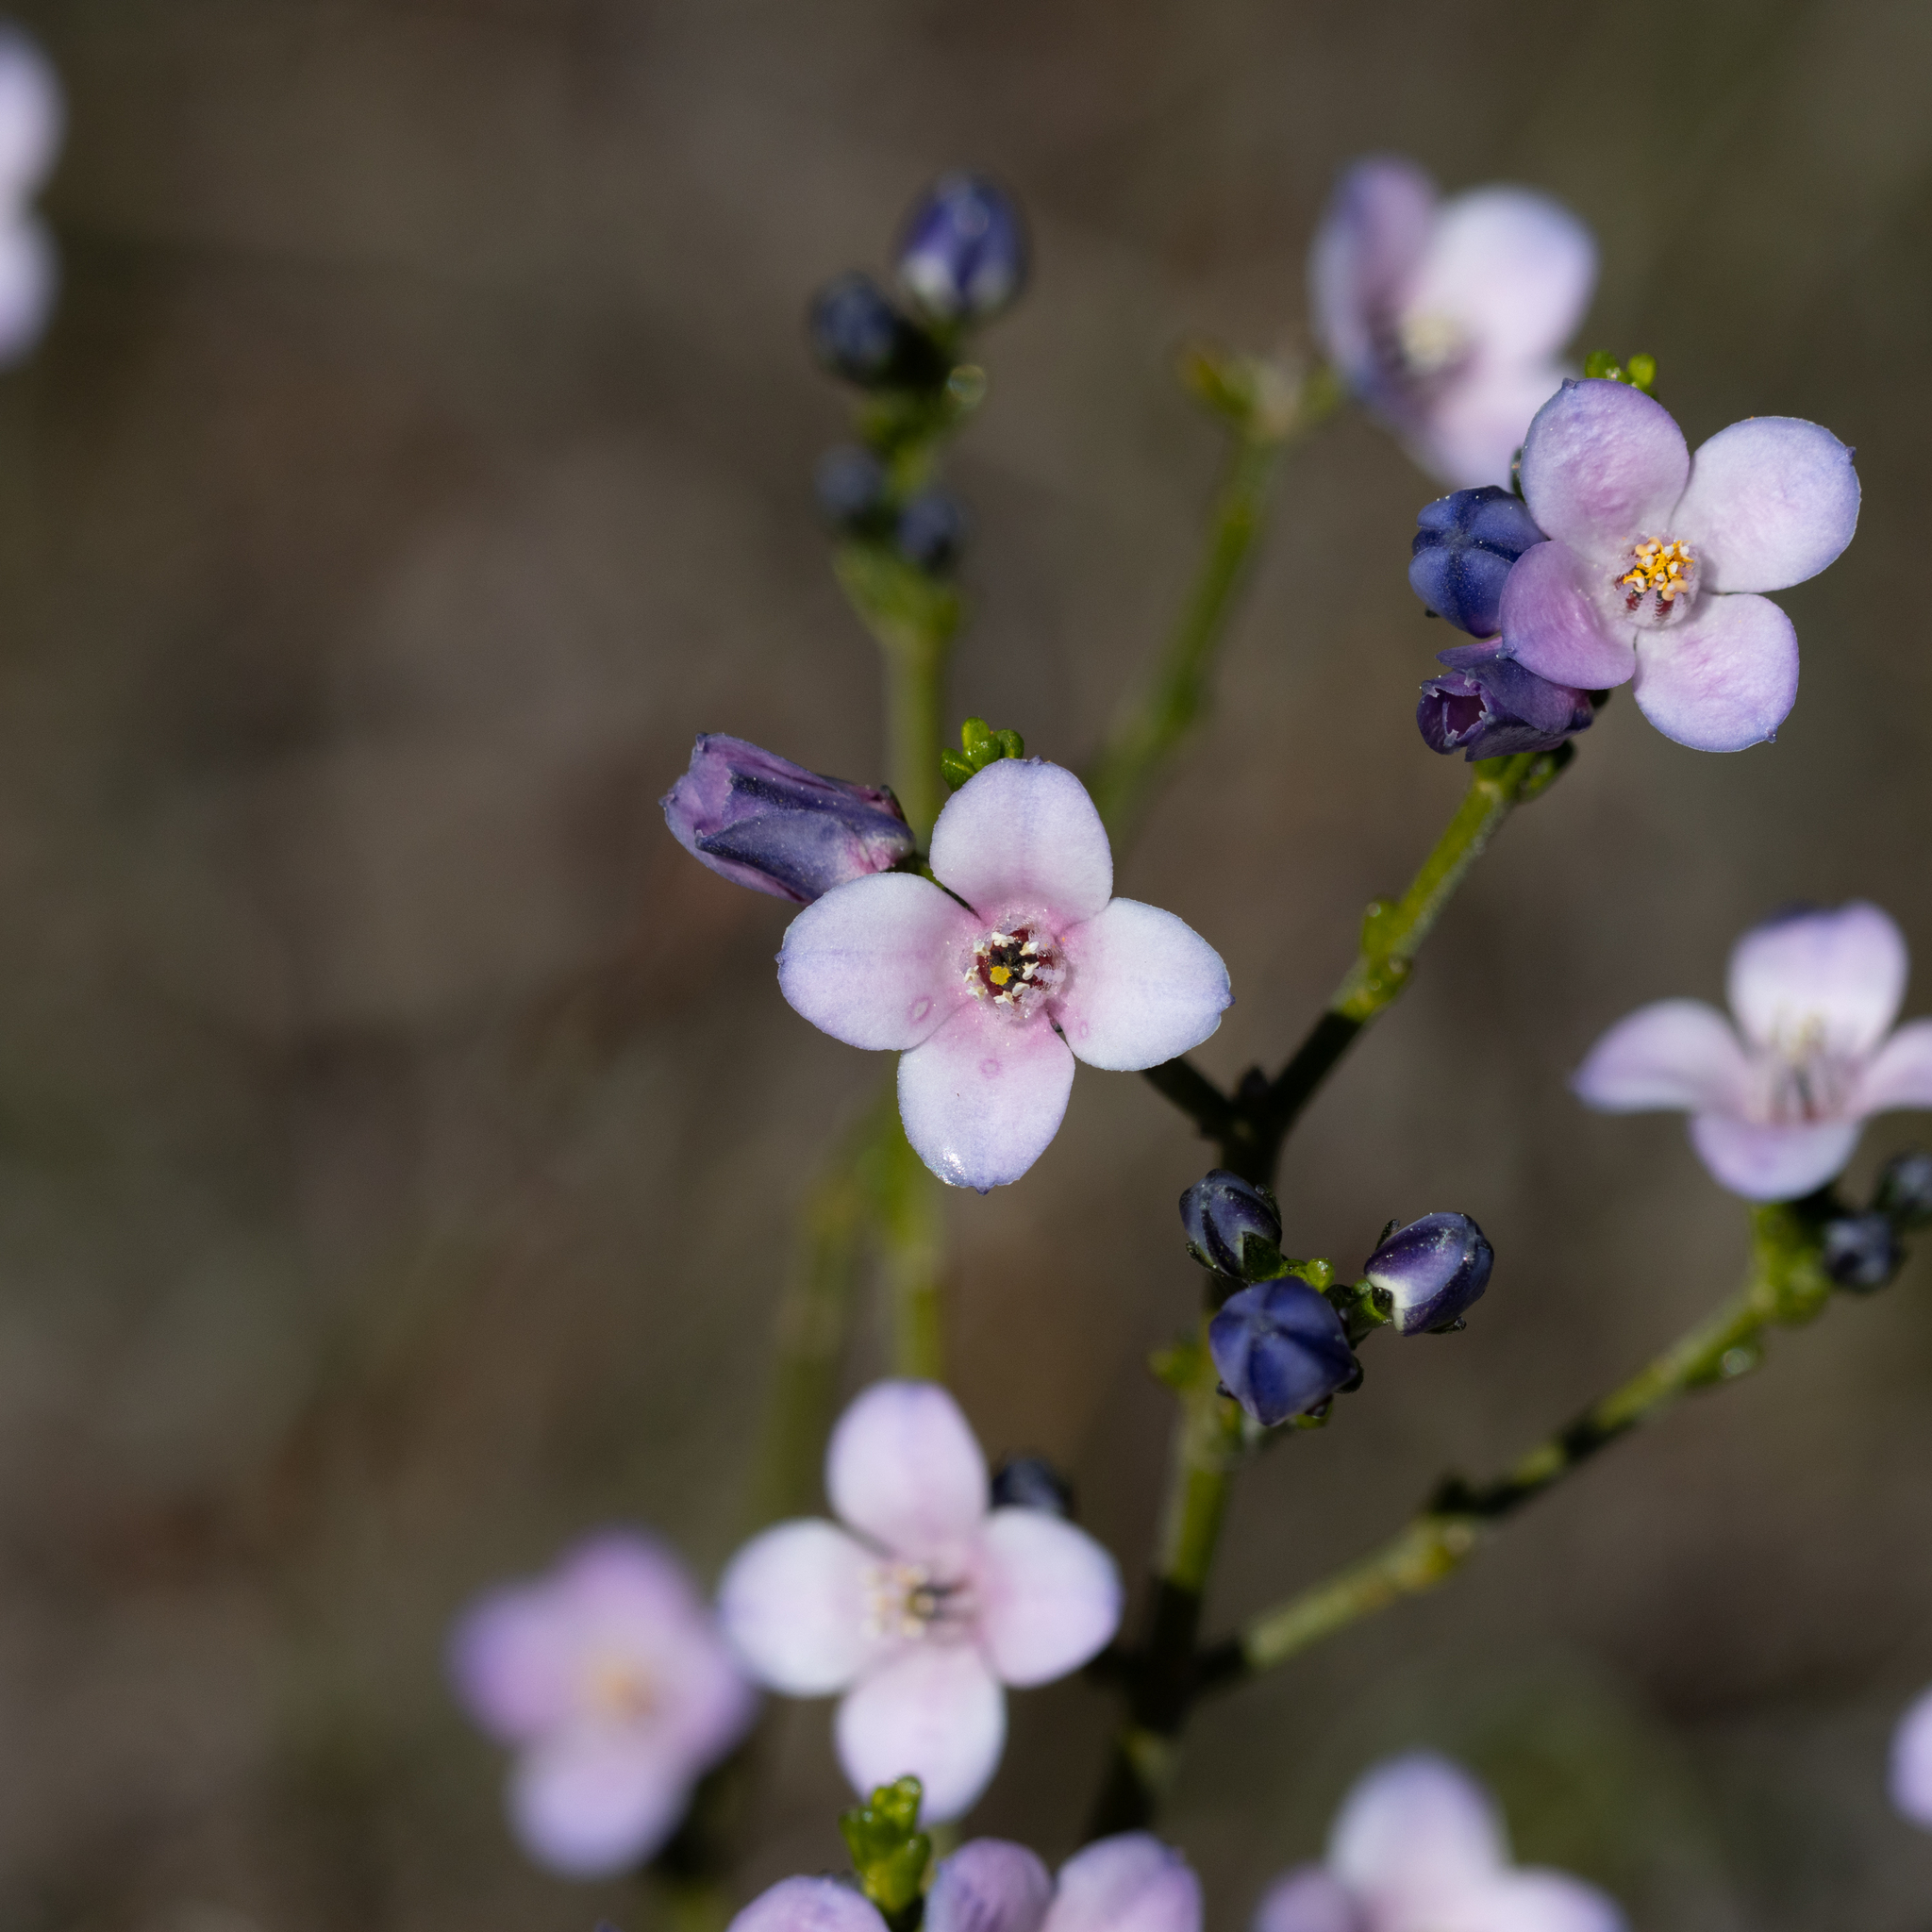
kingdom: Plantae
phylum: Tracheophyta
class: Magnoliopsida
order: Sapindales
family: Rutaceae
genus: Cyanothamnus
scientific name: Cyanothamnus coerulescens
